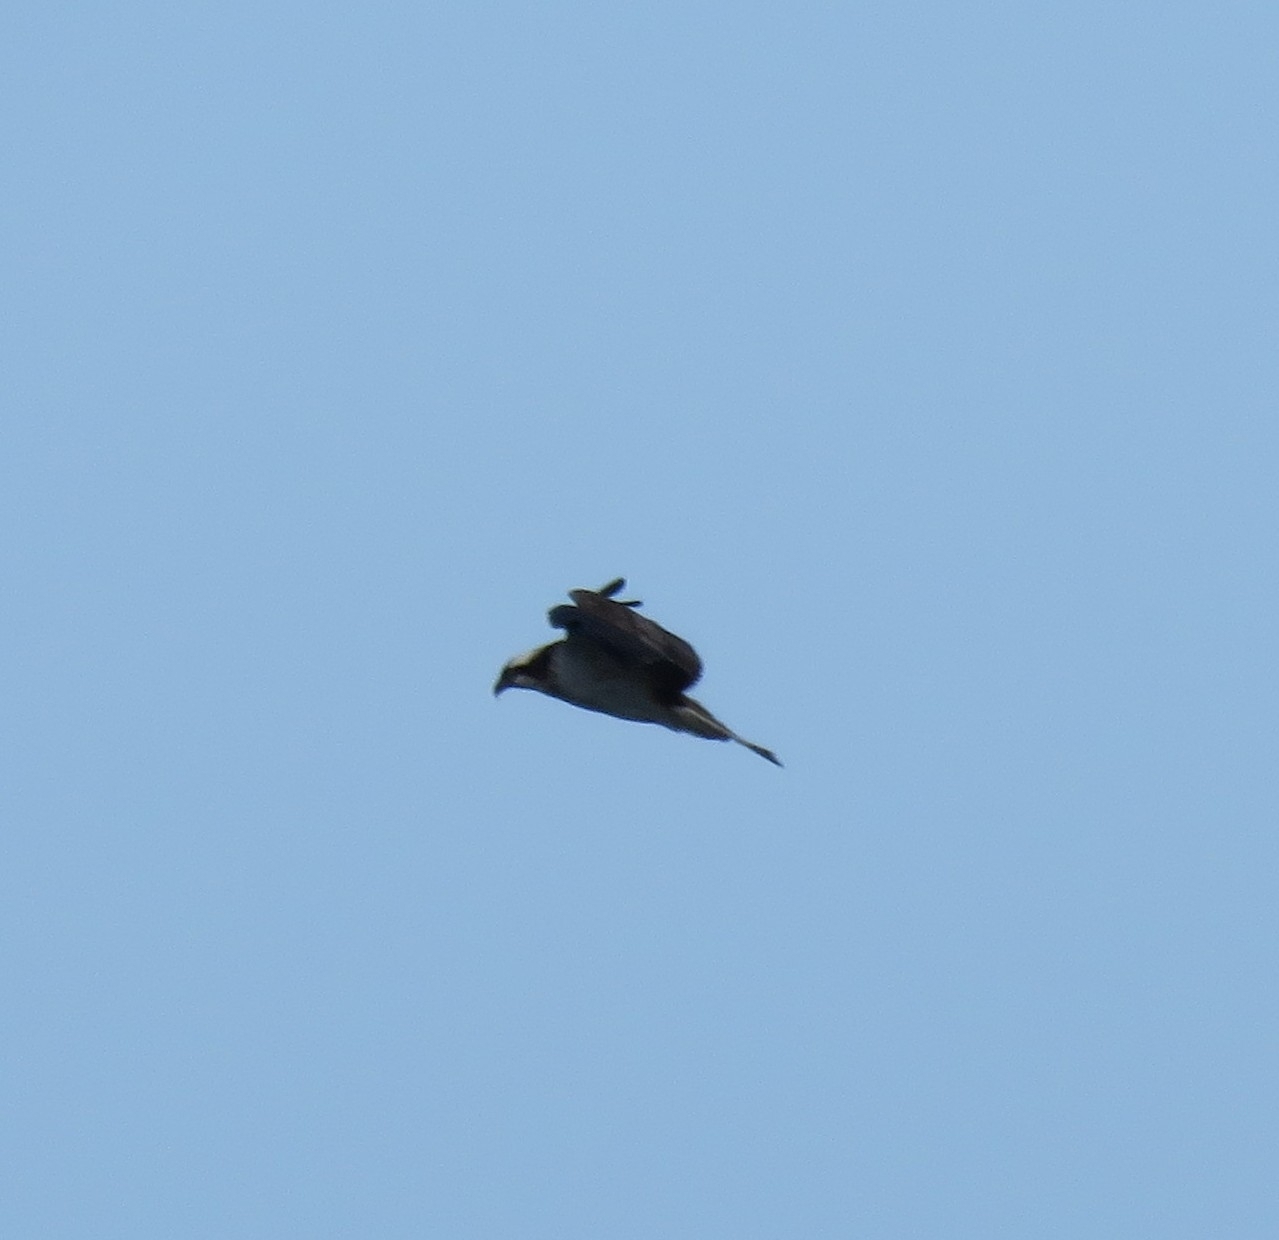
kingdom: Animalia
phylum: Chordata
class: Aves
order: Accipitriformes
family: Pandionidae
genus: Pandion
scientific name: Pandion haliaetus
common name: Osprey
